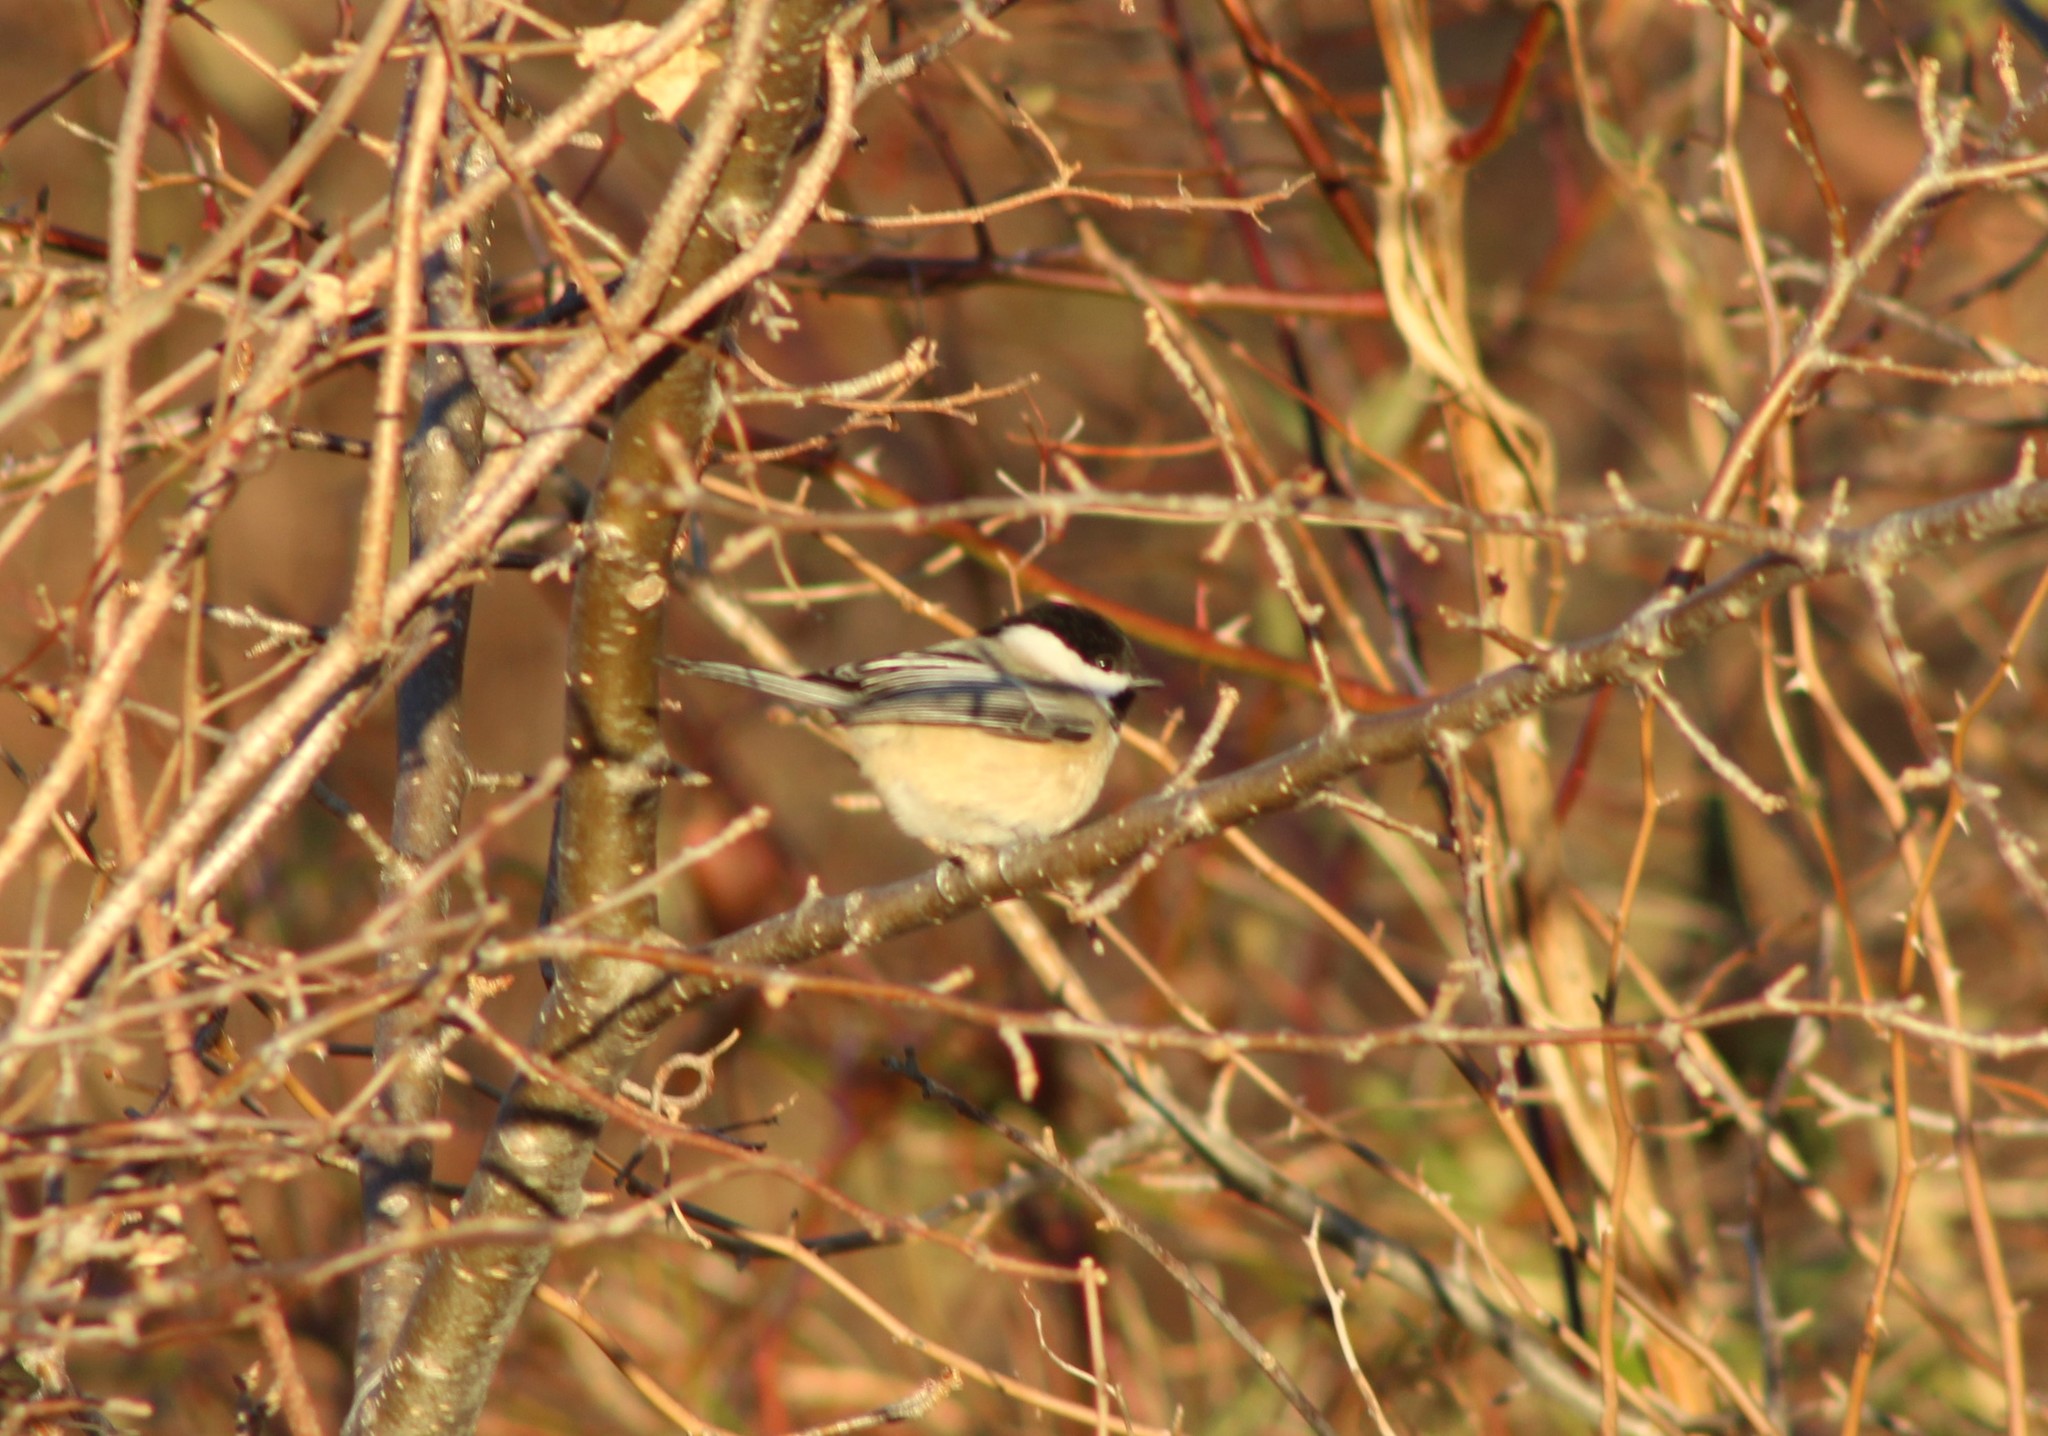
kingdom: Animalia
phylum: Chordata
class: Aves
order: Passeriformes
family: Paridae
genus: Poecile
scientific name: Poecile atricapillus
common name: Black-capped chickadee
